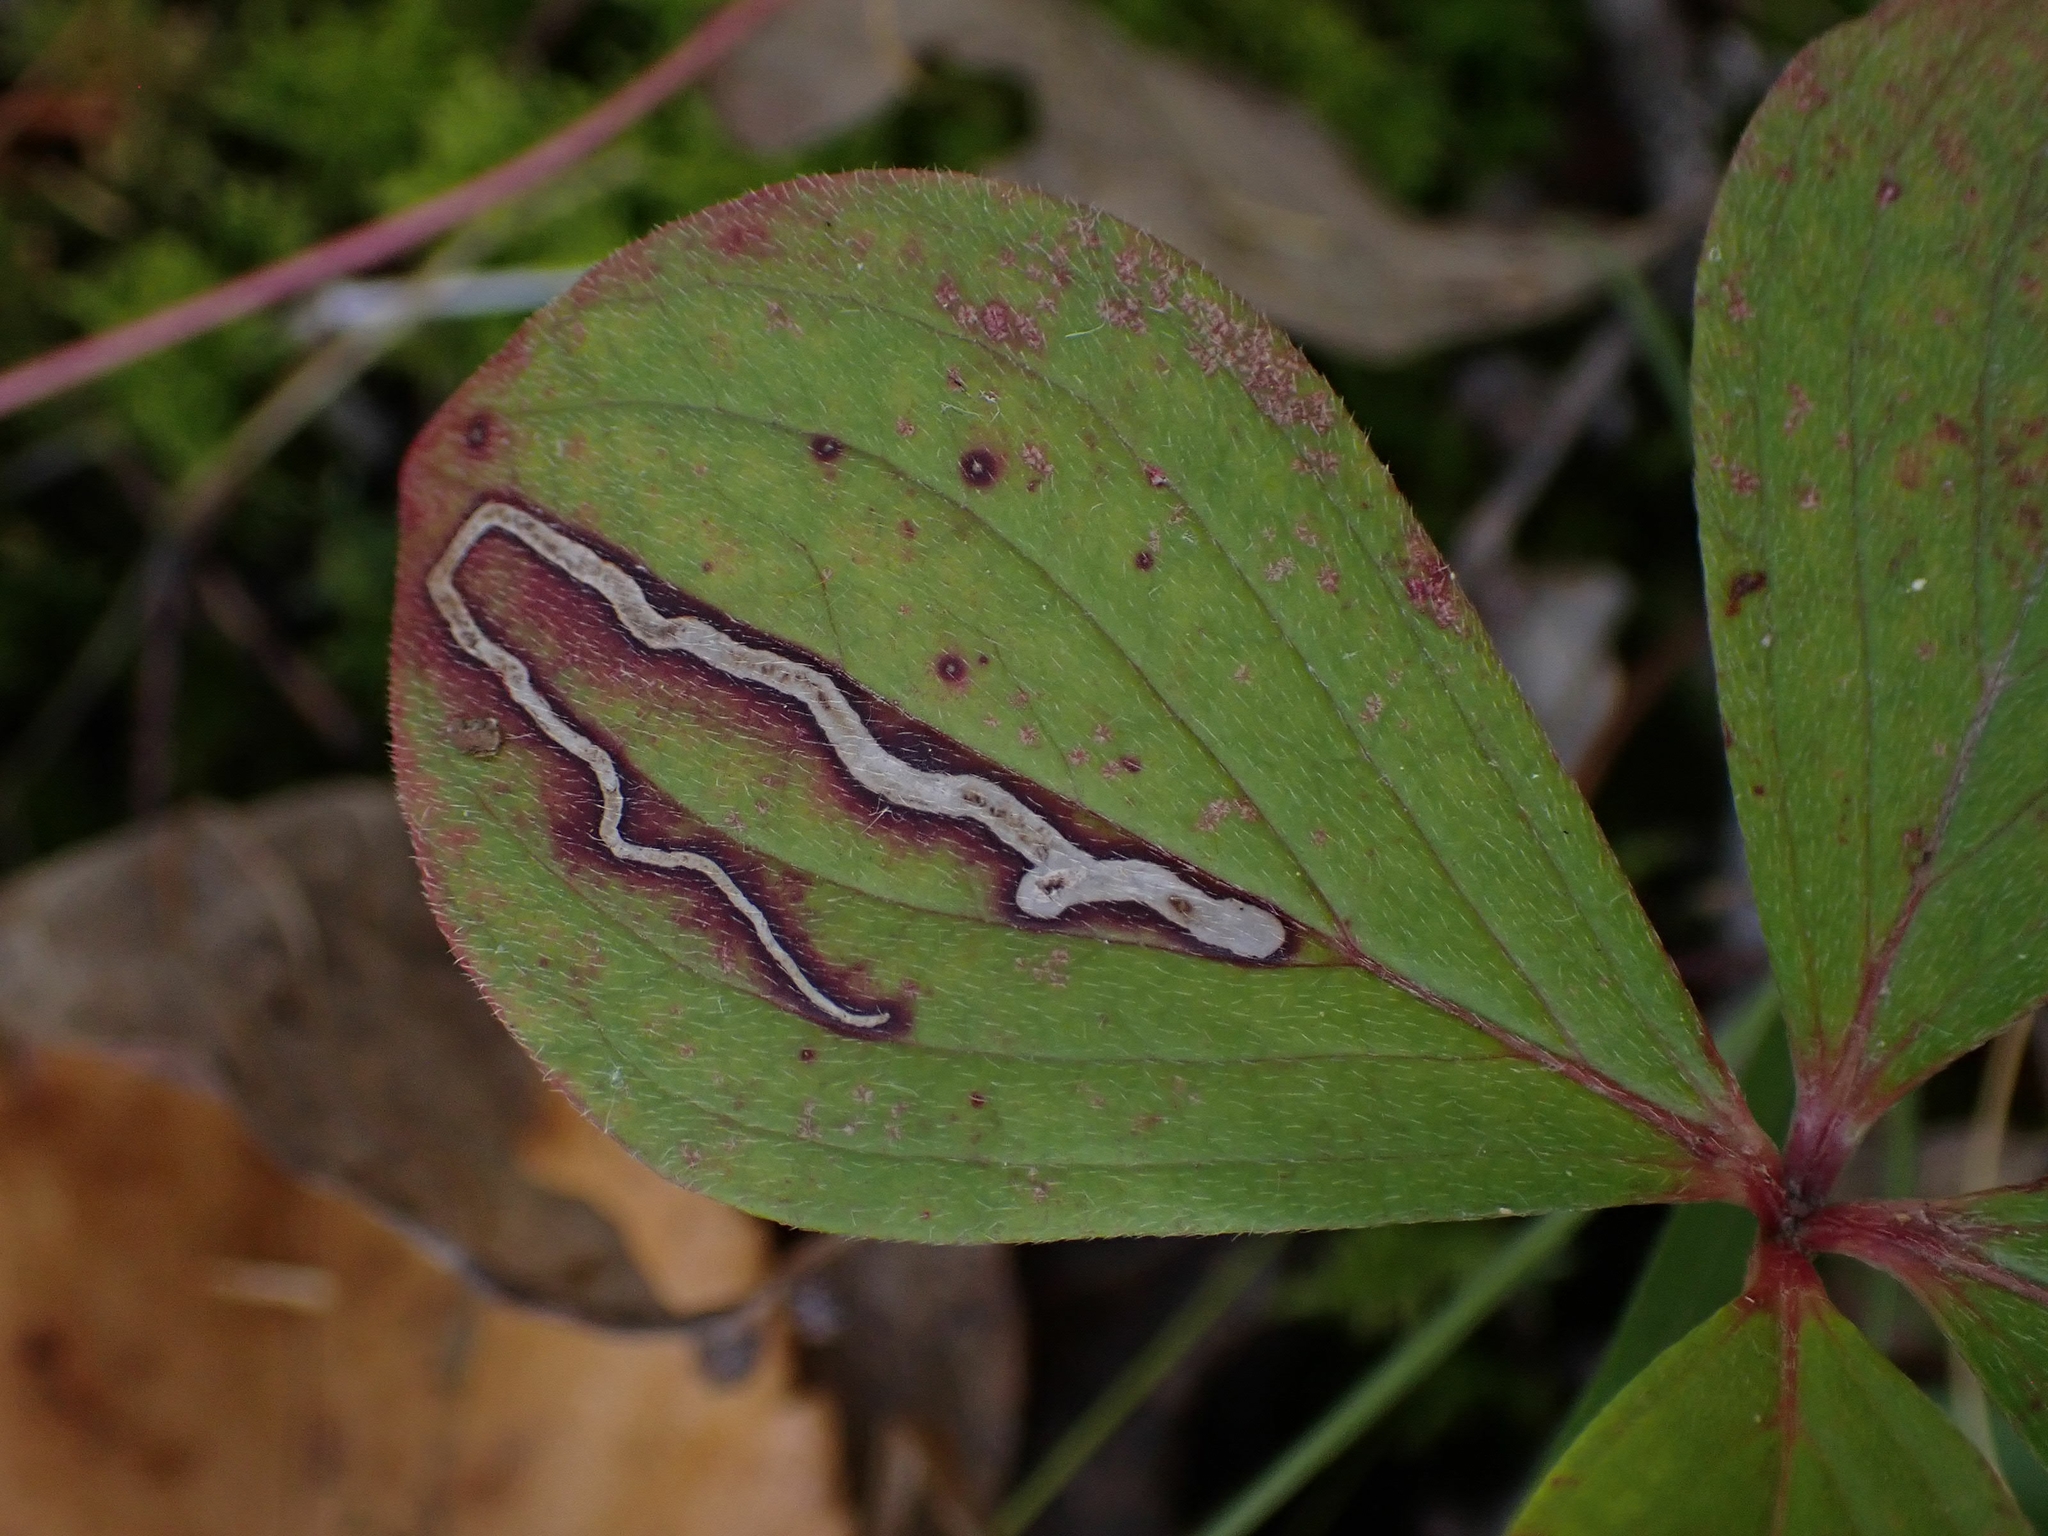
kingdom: Animalia
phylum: Arthropoda
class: Insecta
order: Diptera
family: Agromyzidae
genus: Phytomyza
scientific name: Phytomyza agromyzina
